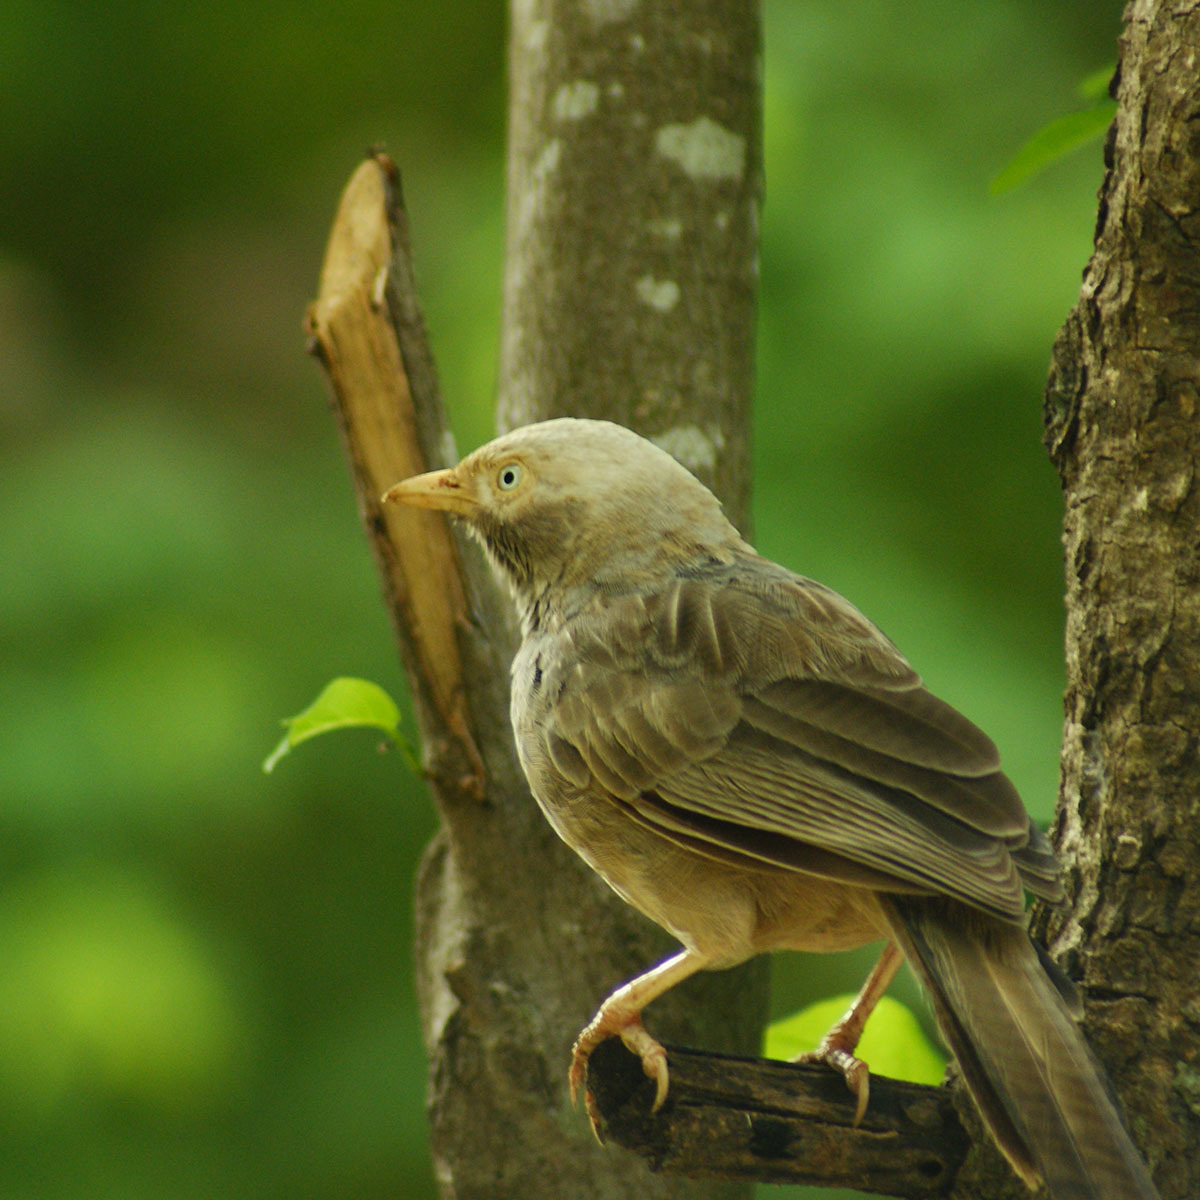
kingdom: Animalia
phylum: Chordata
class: Aves
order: Passeriformes
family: Leiothrichidae
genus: Turdoides
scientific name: Turdoides affinis
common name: Yellow-billed babbler
